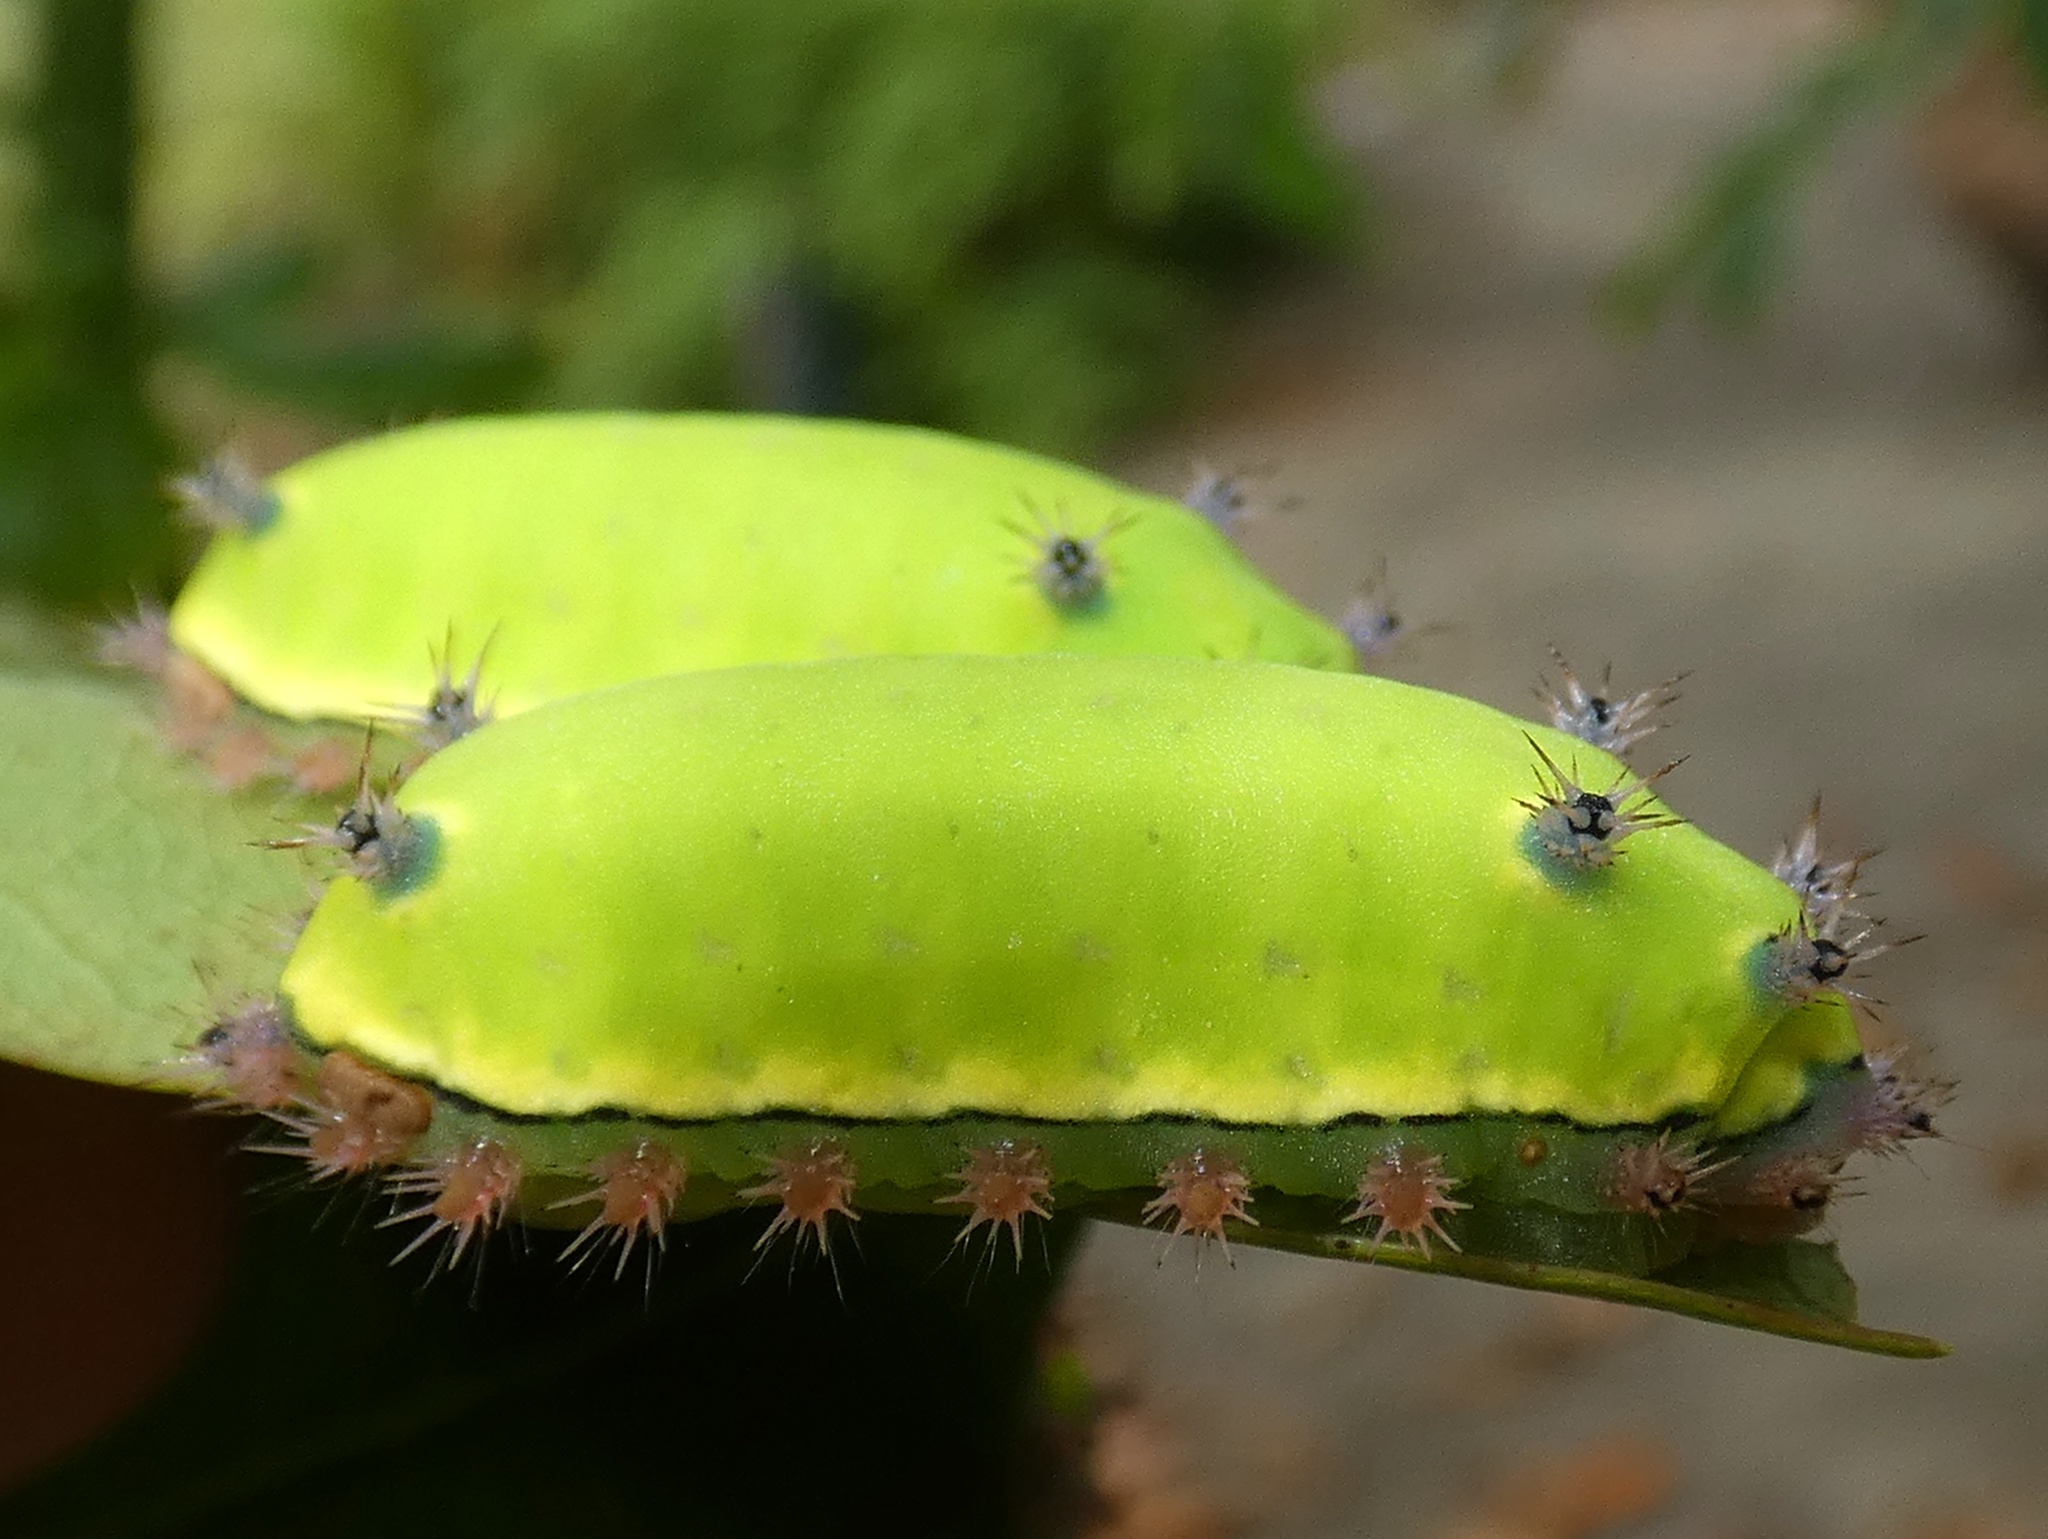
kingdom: Animalia
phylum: Arthropoda
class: Insecta
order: Lepidoptera
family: Limacodidae
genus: Acharia
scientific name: Acharia
